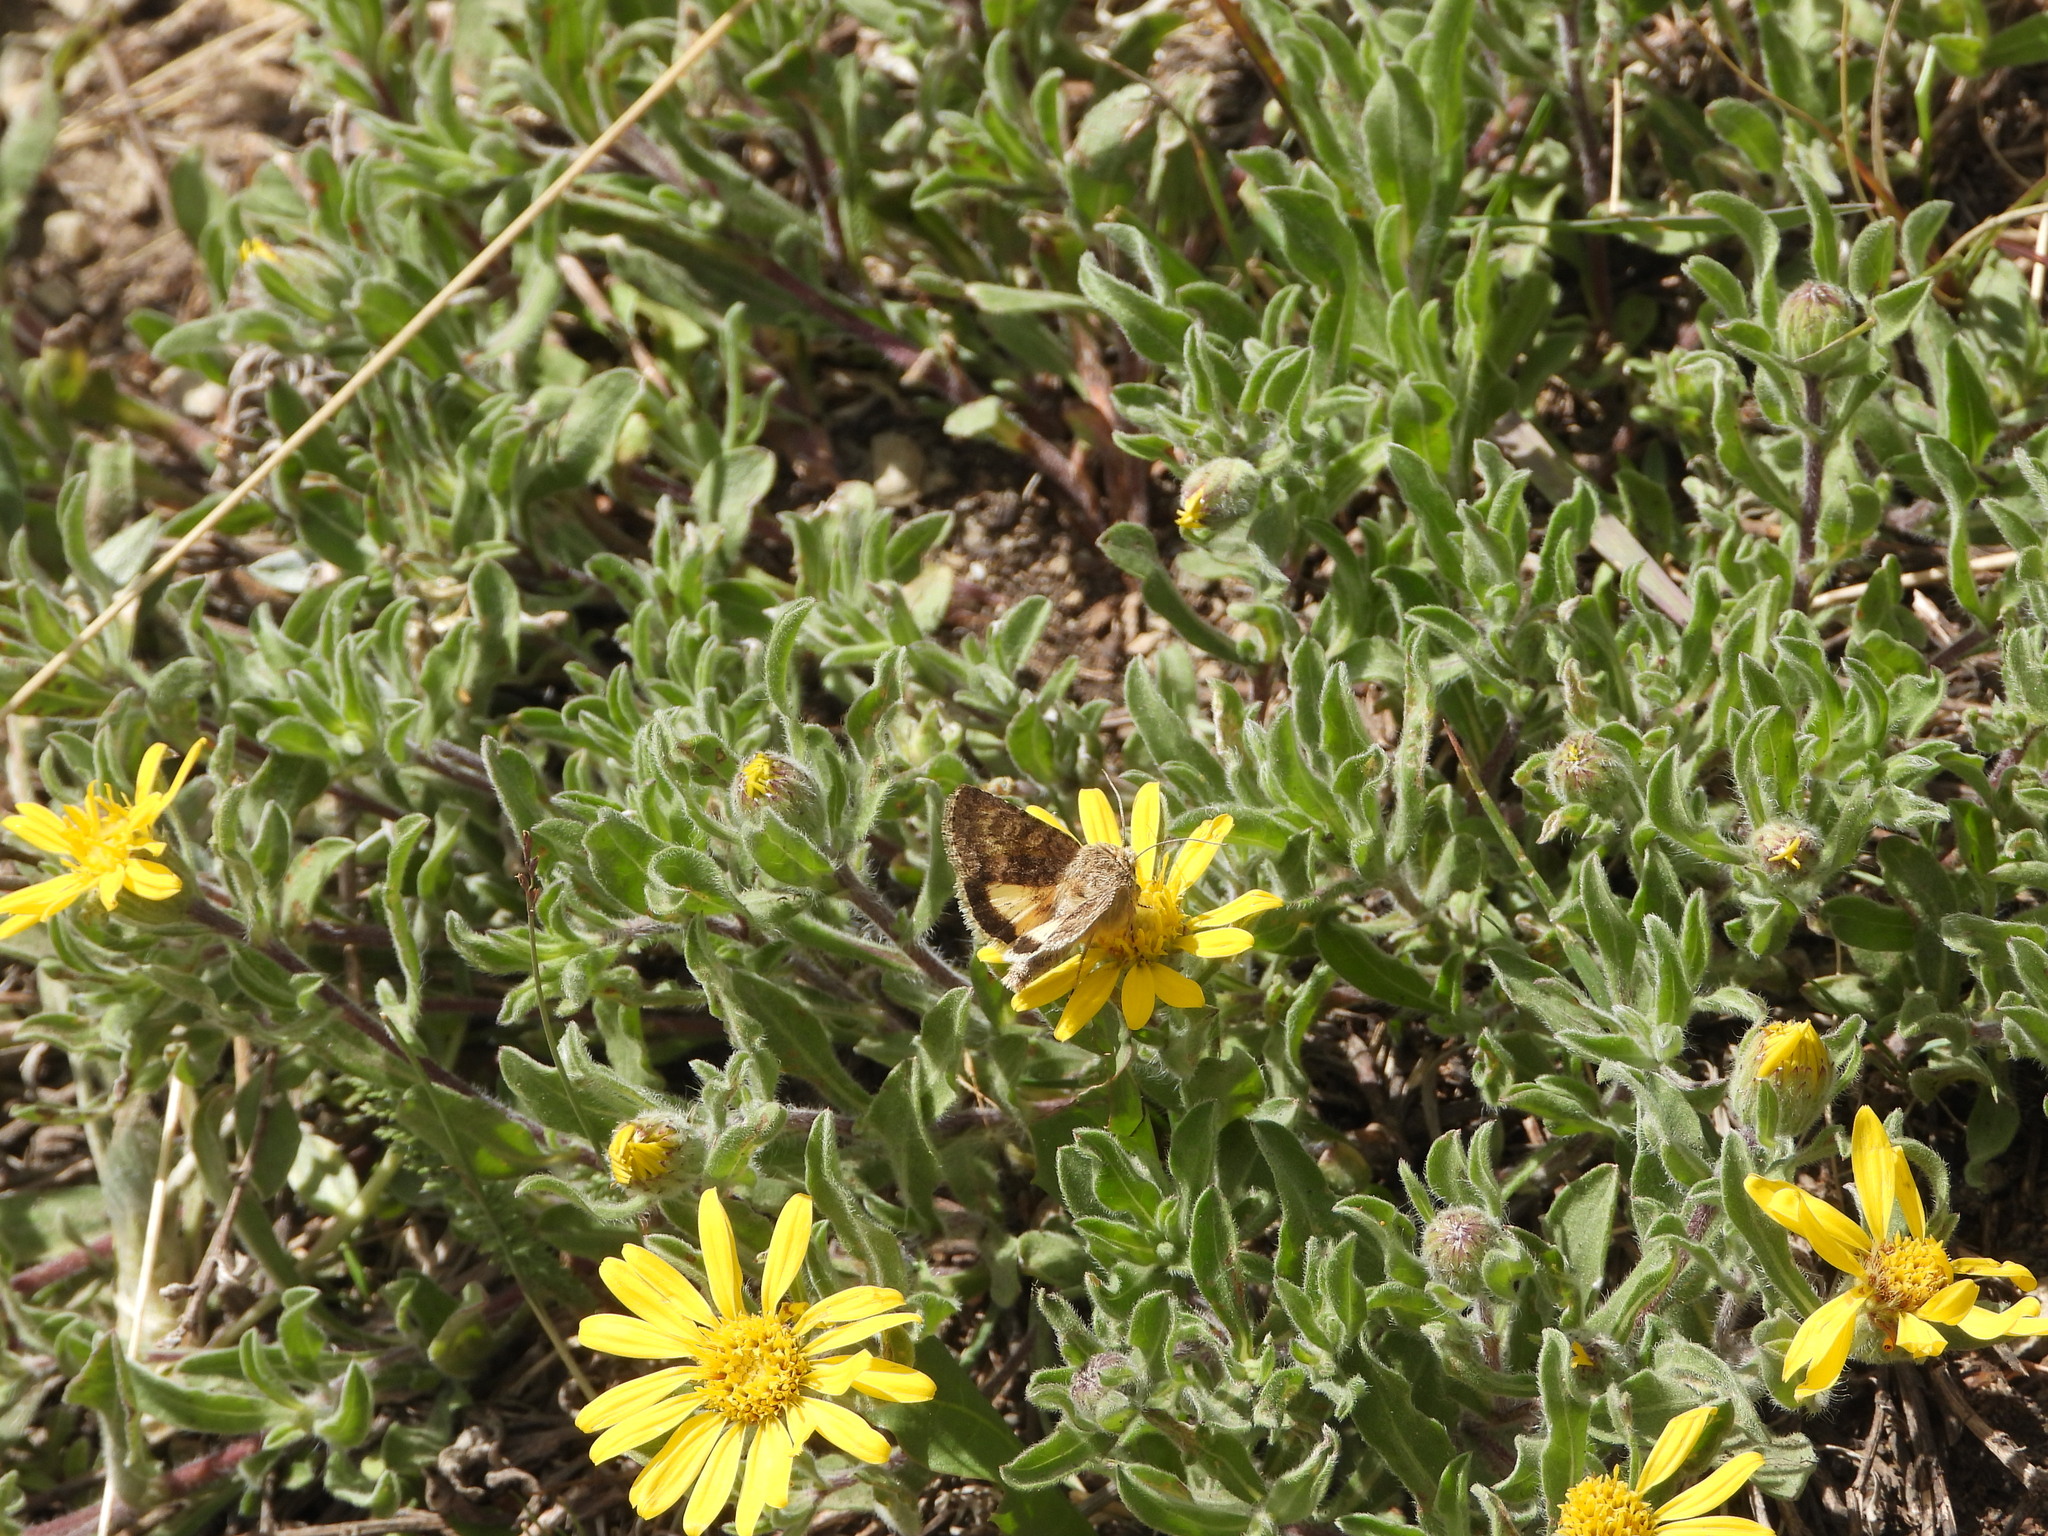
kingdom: Plantae
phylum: Tracheophyta
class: Magnoliopsida
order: Asterales
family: Asteraceae
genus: Heterotheca
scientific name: Heterotheca pumila
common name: Alpine golden-aster
